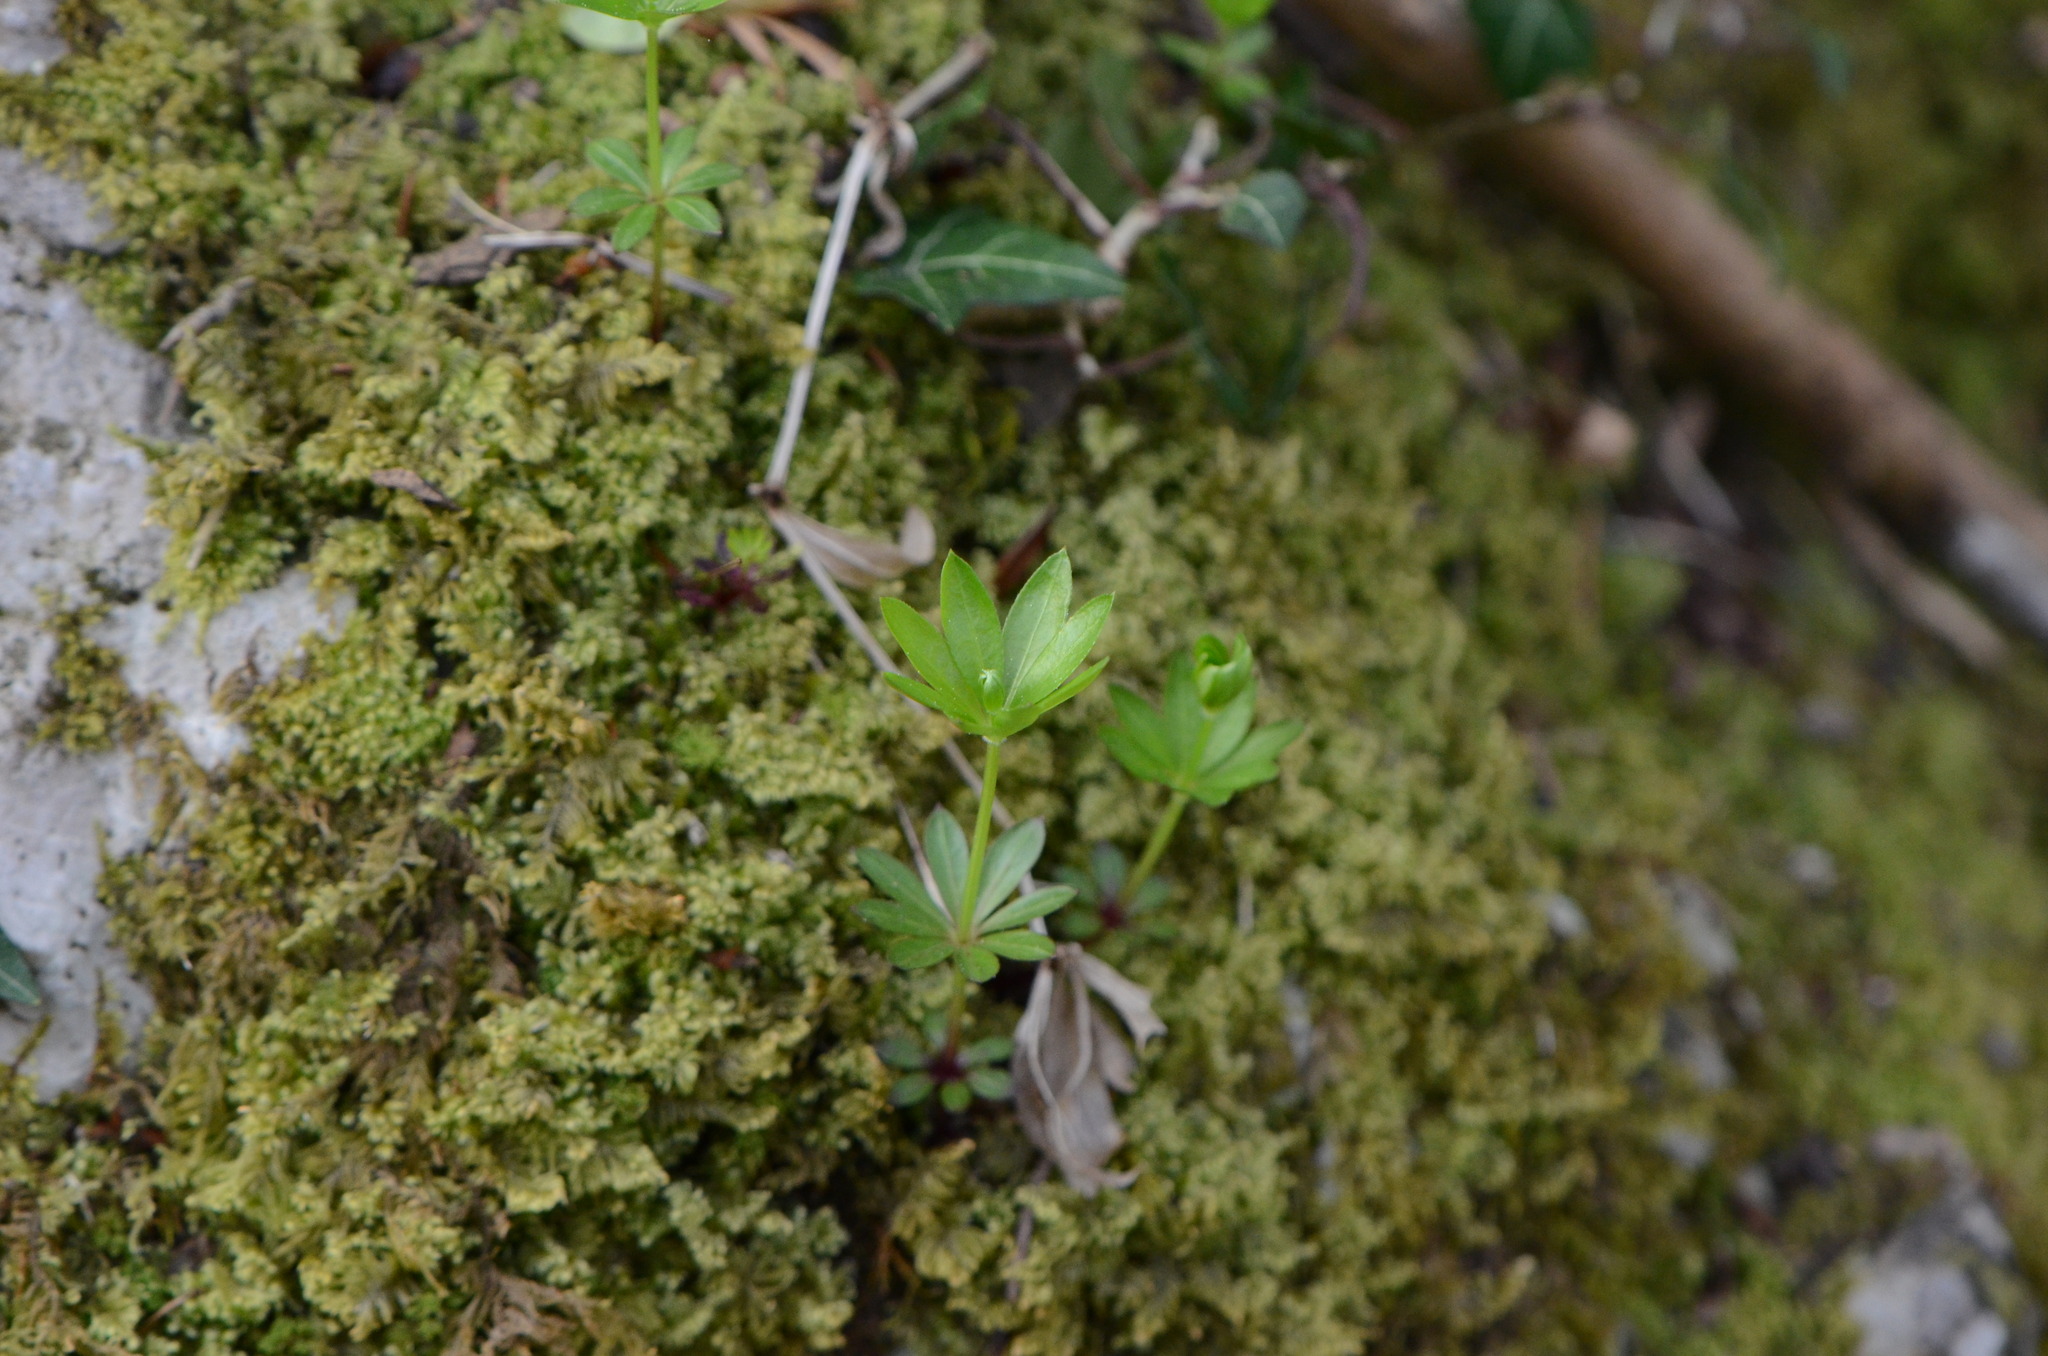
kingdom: Plantae
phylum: Tracheophyta
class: Magnoliopsida
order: Gentianales
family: Rubiaceae
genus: Galium
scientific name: Galium odoratum
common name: Sweet woodruff
